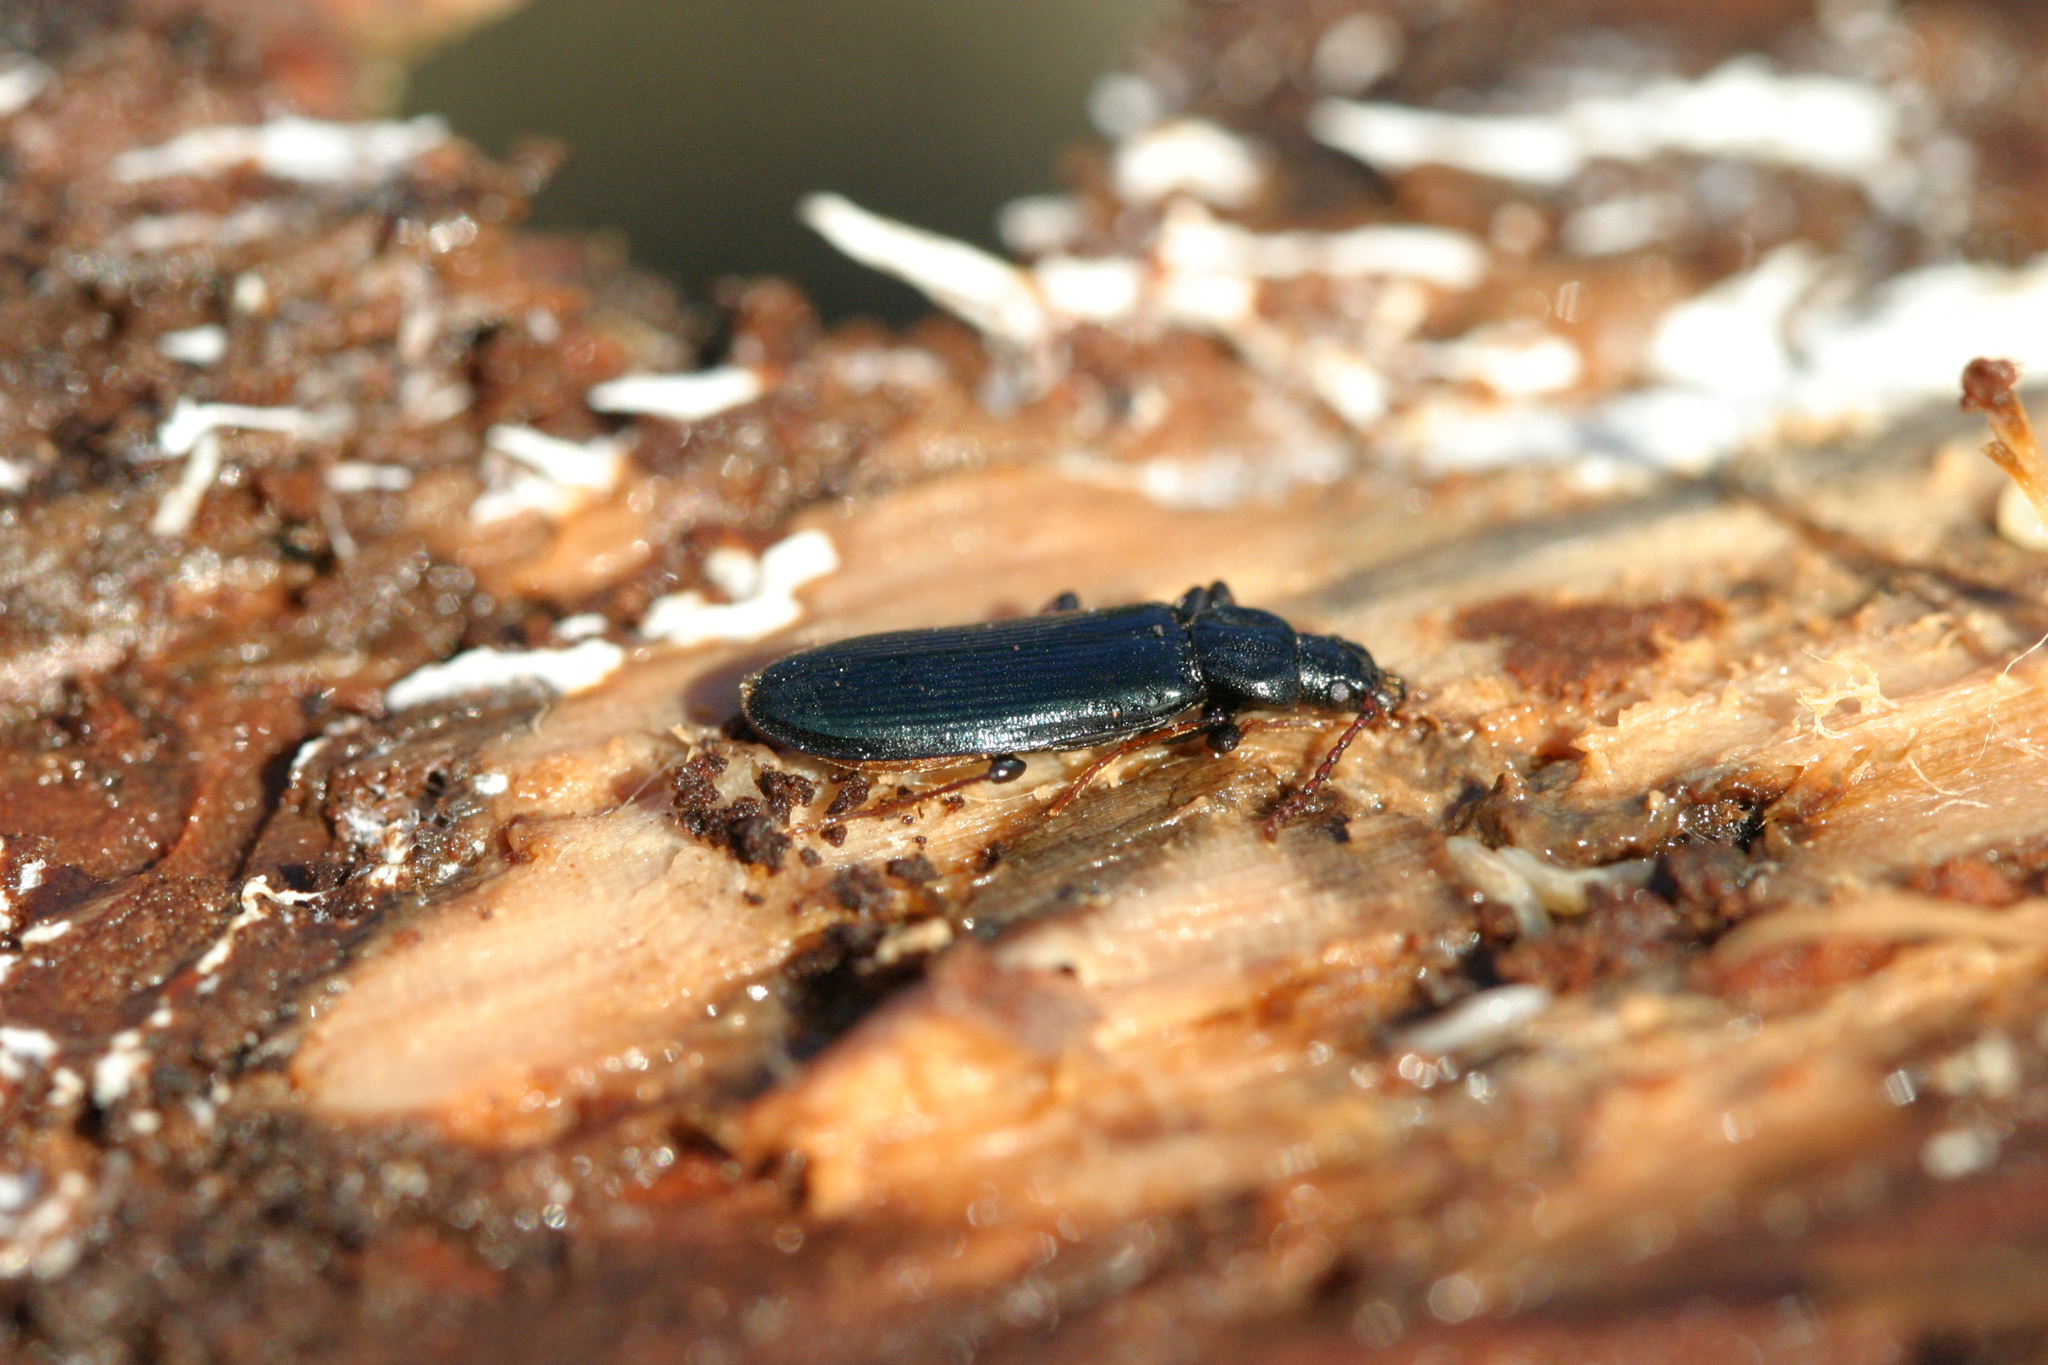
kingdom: Animalia
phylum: Arthropoda
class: Insecta
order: Coleoptera
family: Pythidae
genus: Pytho
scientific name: Pytho depressus
